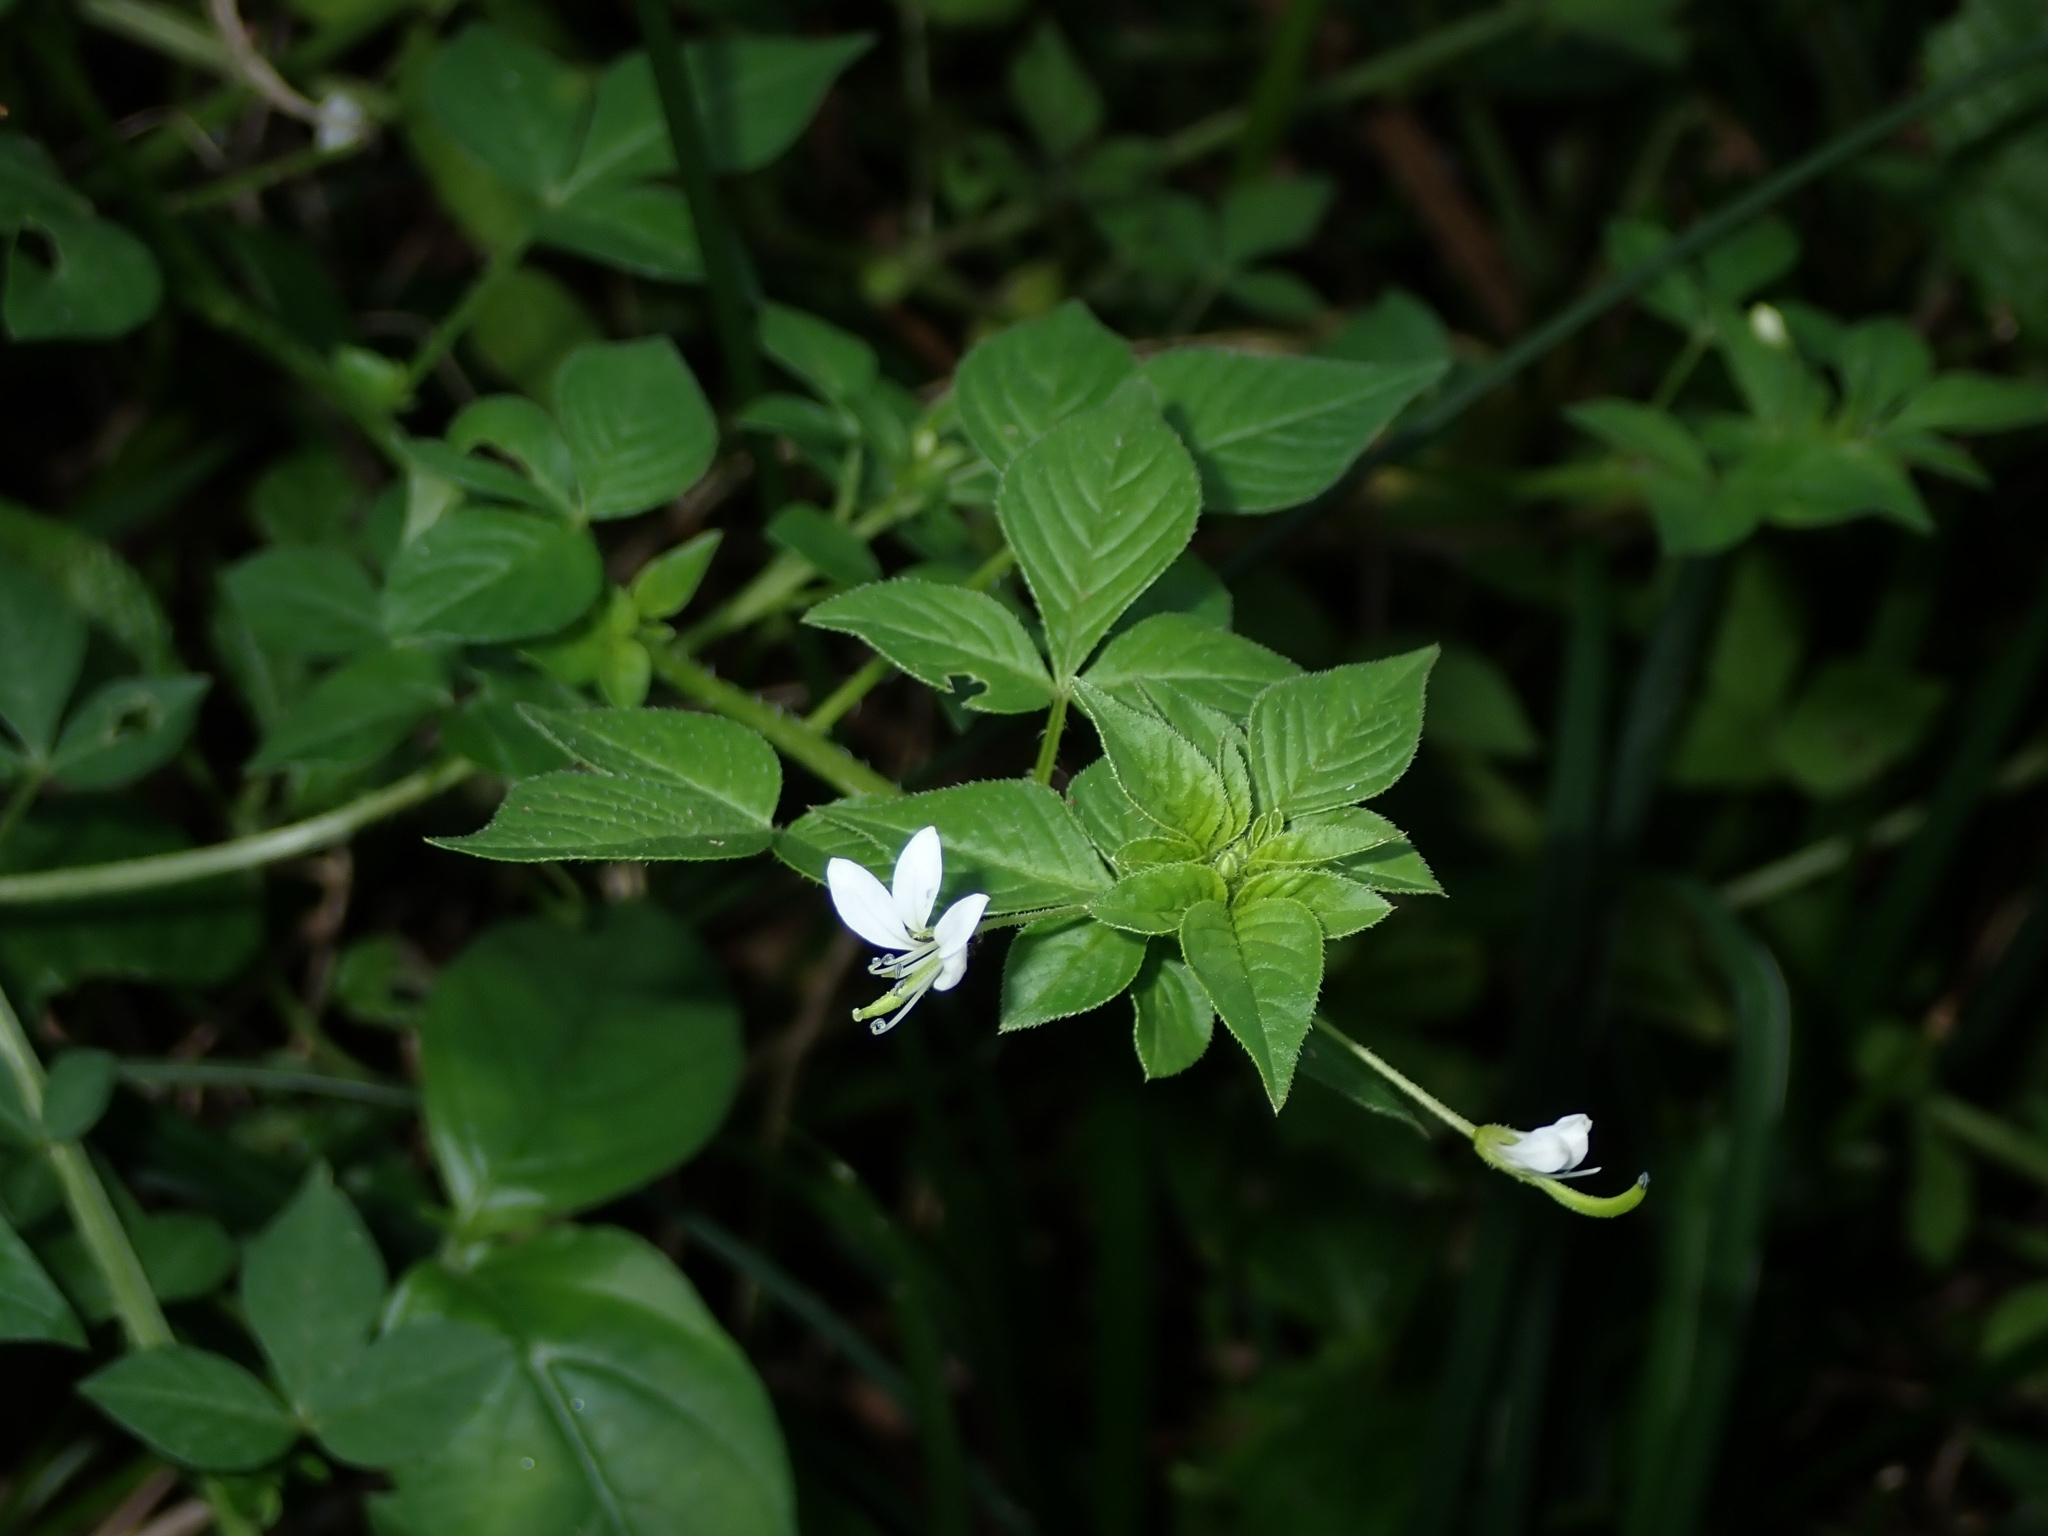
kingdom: Plantae
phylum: Tracheophyta
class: Magnoliopsida
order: Lamiales
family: Acanthaceae
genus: Asystasia
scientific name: Asystasia intrusa
